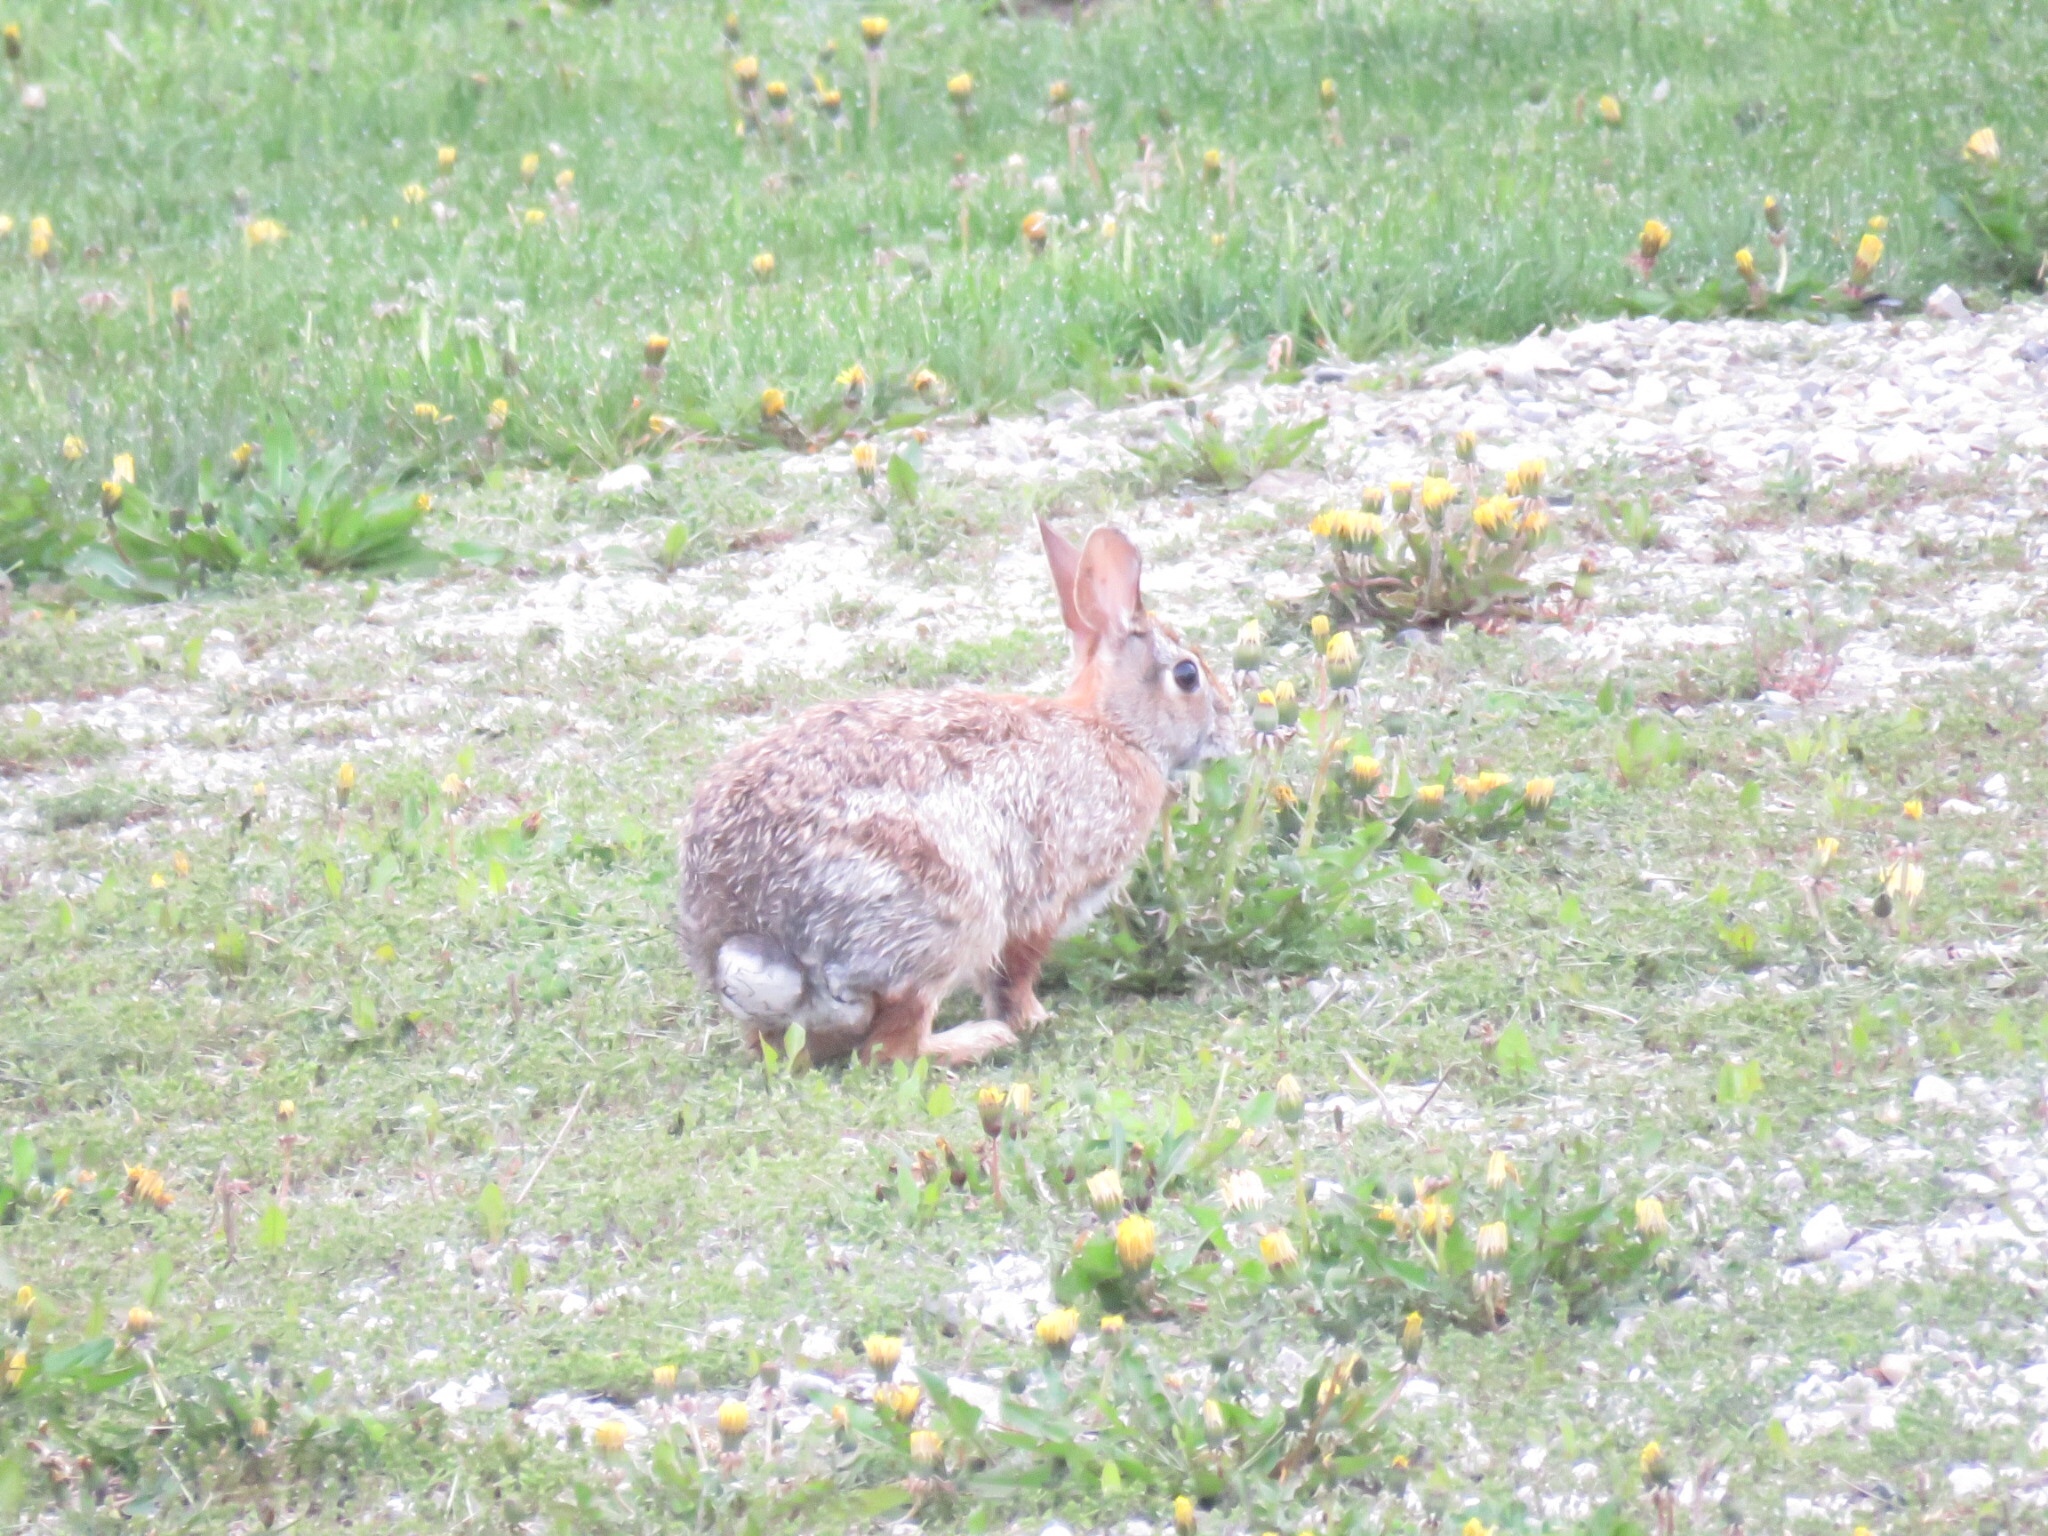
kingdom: Animalia
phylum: Chordata
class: Mammalia
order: Lagomorpha
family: Leporidae
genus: Sylvilagus
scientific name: Sylvilagus floridanus
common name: Eastern cottontail
